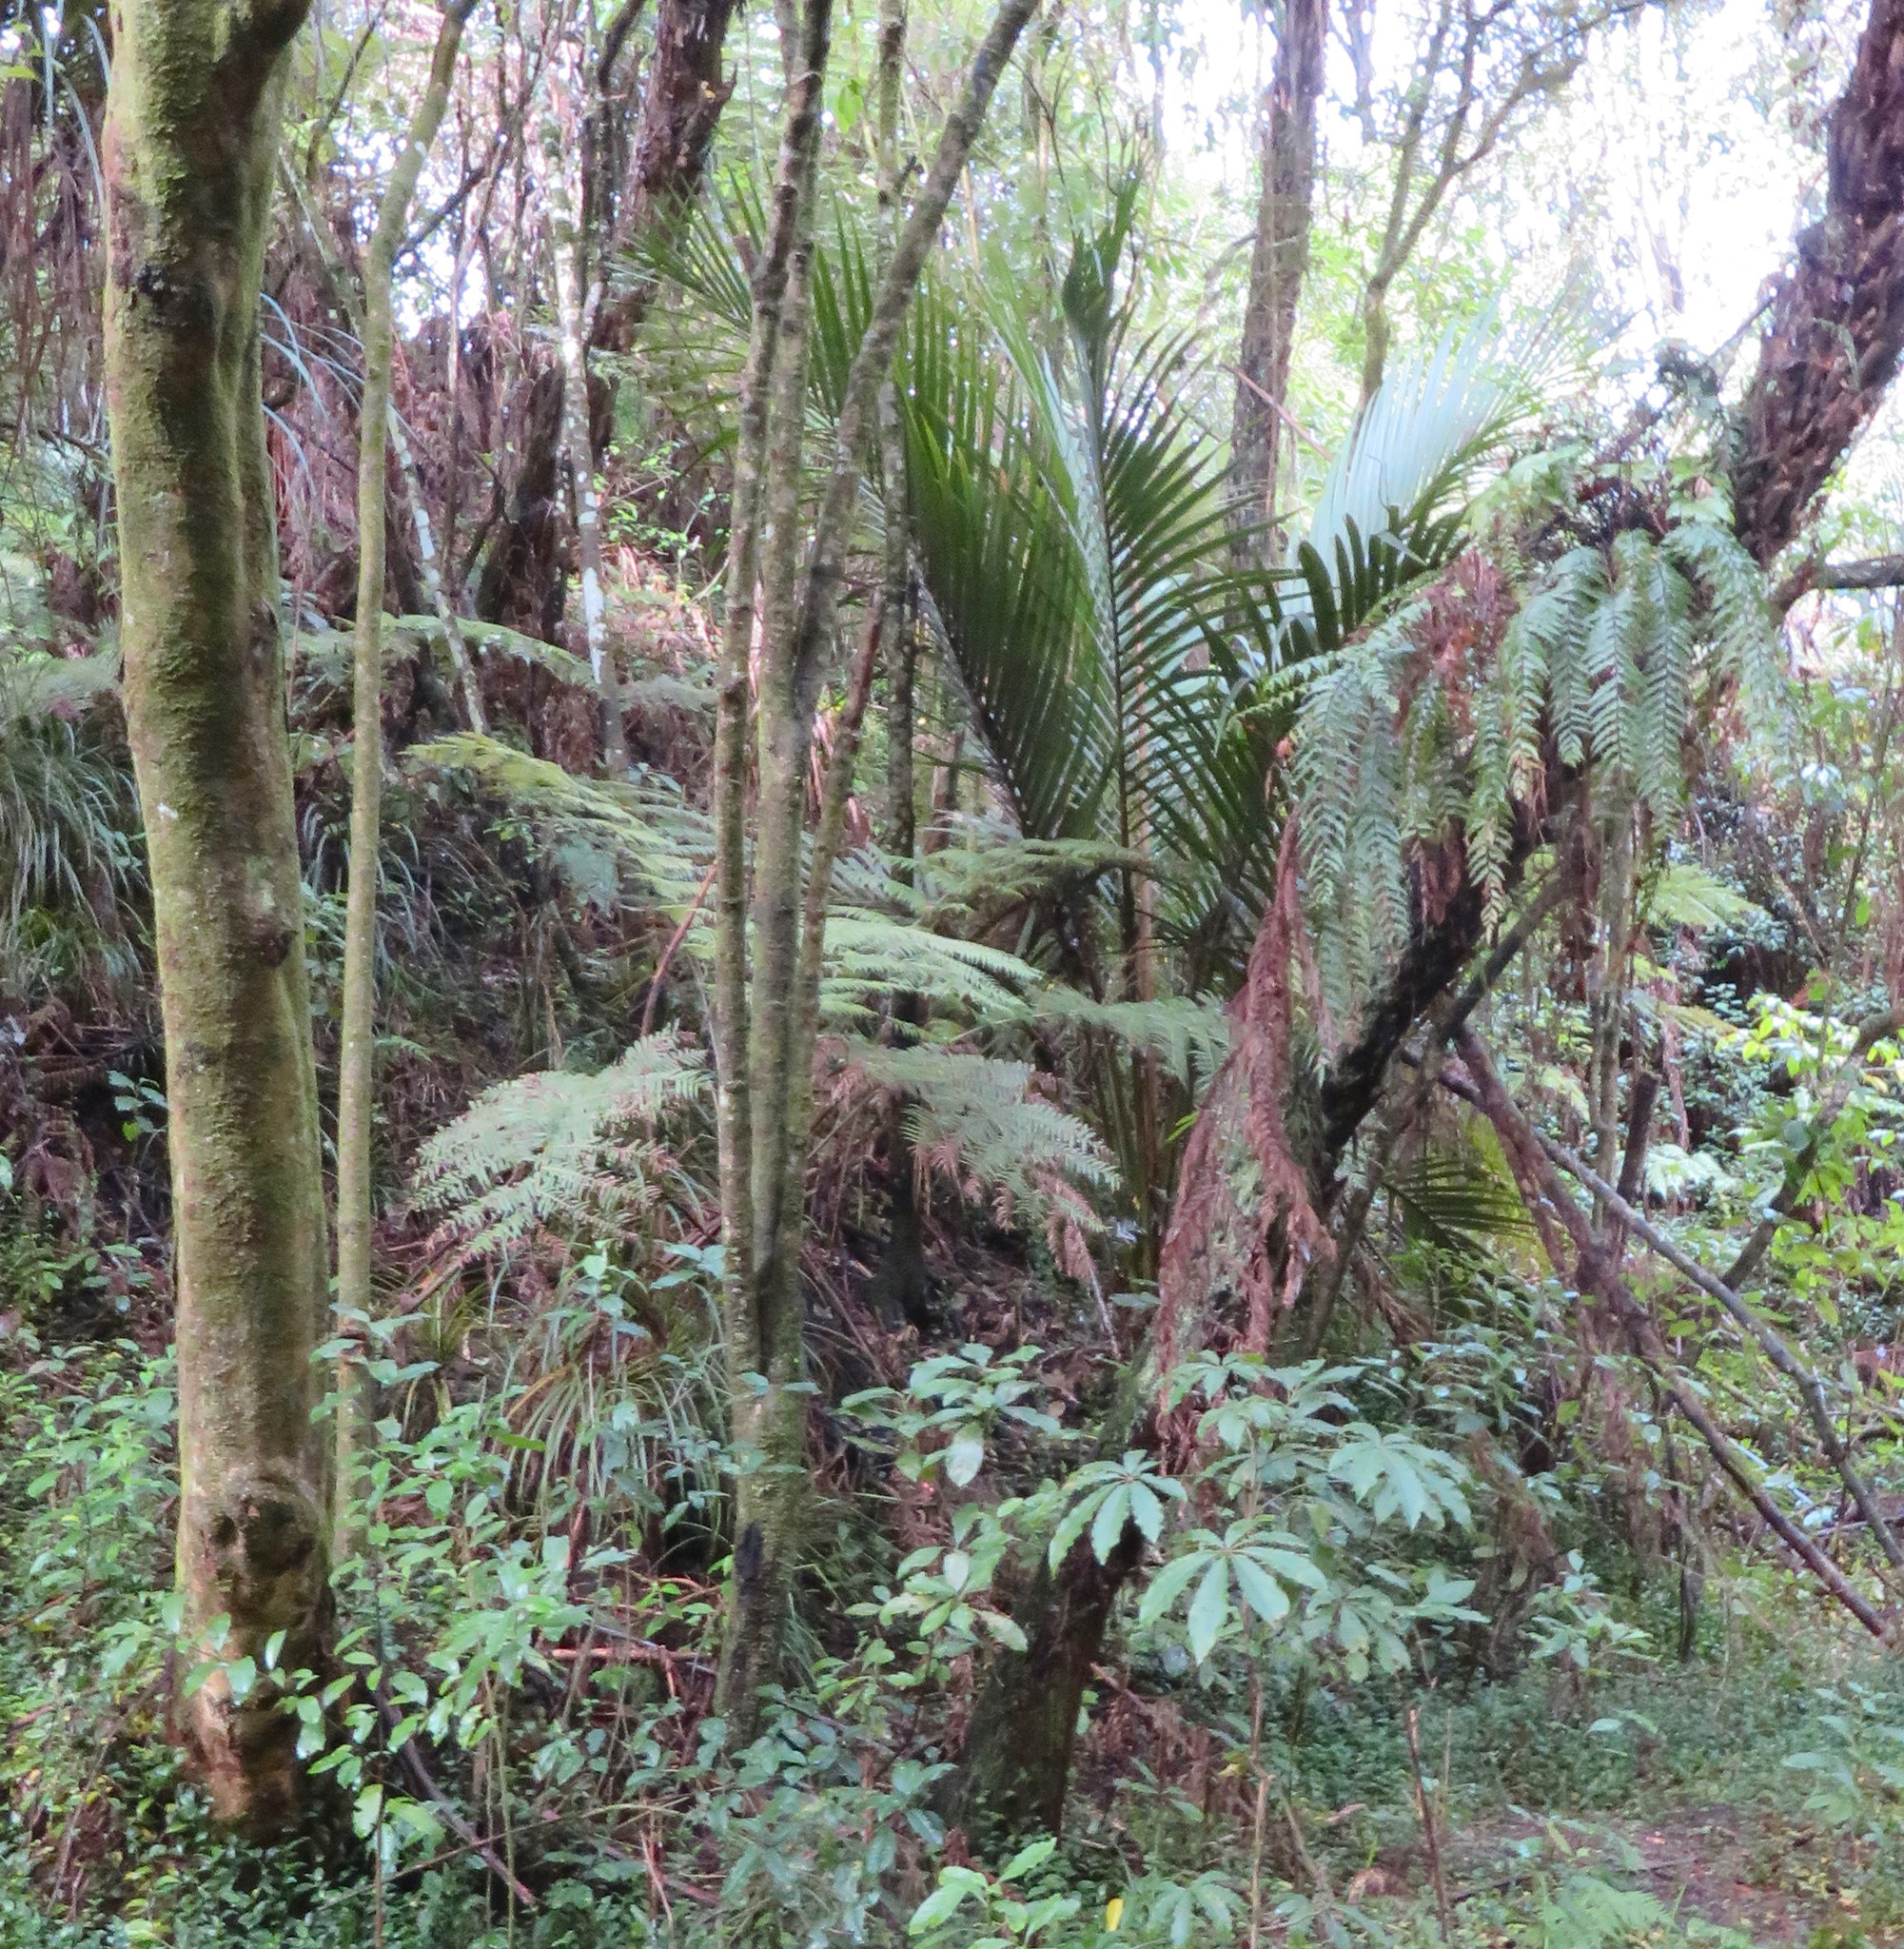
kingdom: Plantae
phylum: Tracheophyta
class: Liliopsida
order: Arecales
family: Arecaceae
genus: Rhopalostylis
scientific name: Rhopalostylis sapida
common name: Feather-duster palm
